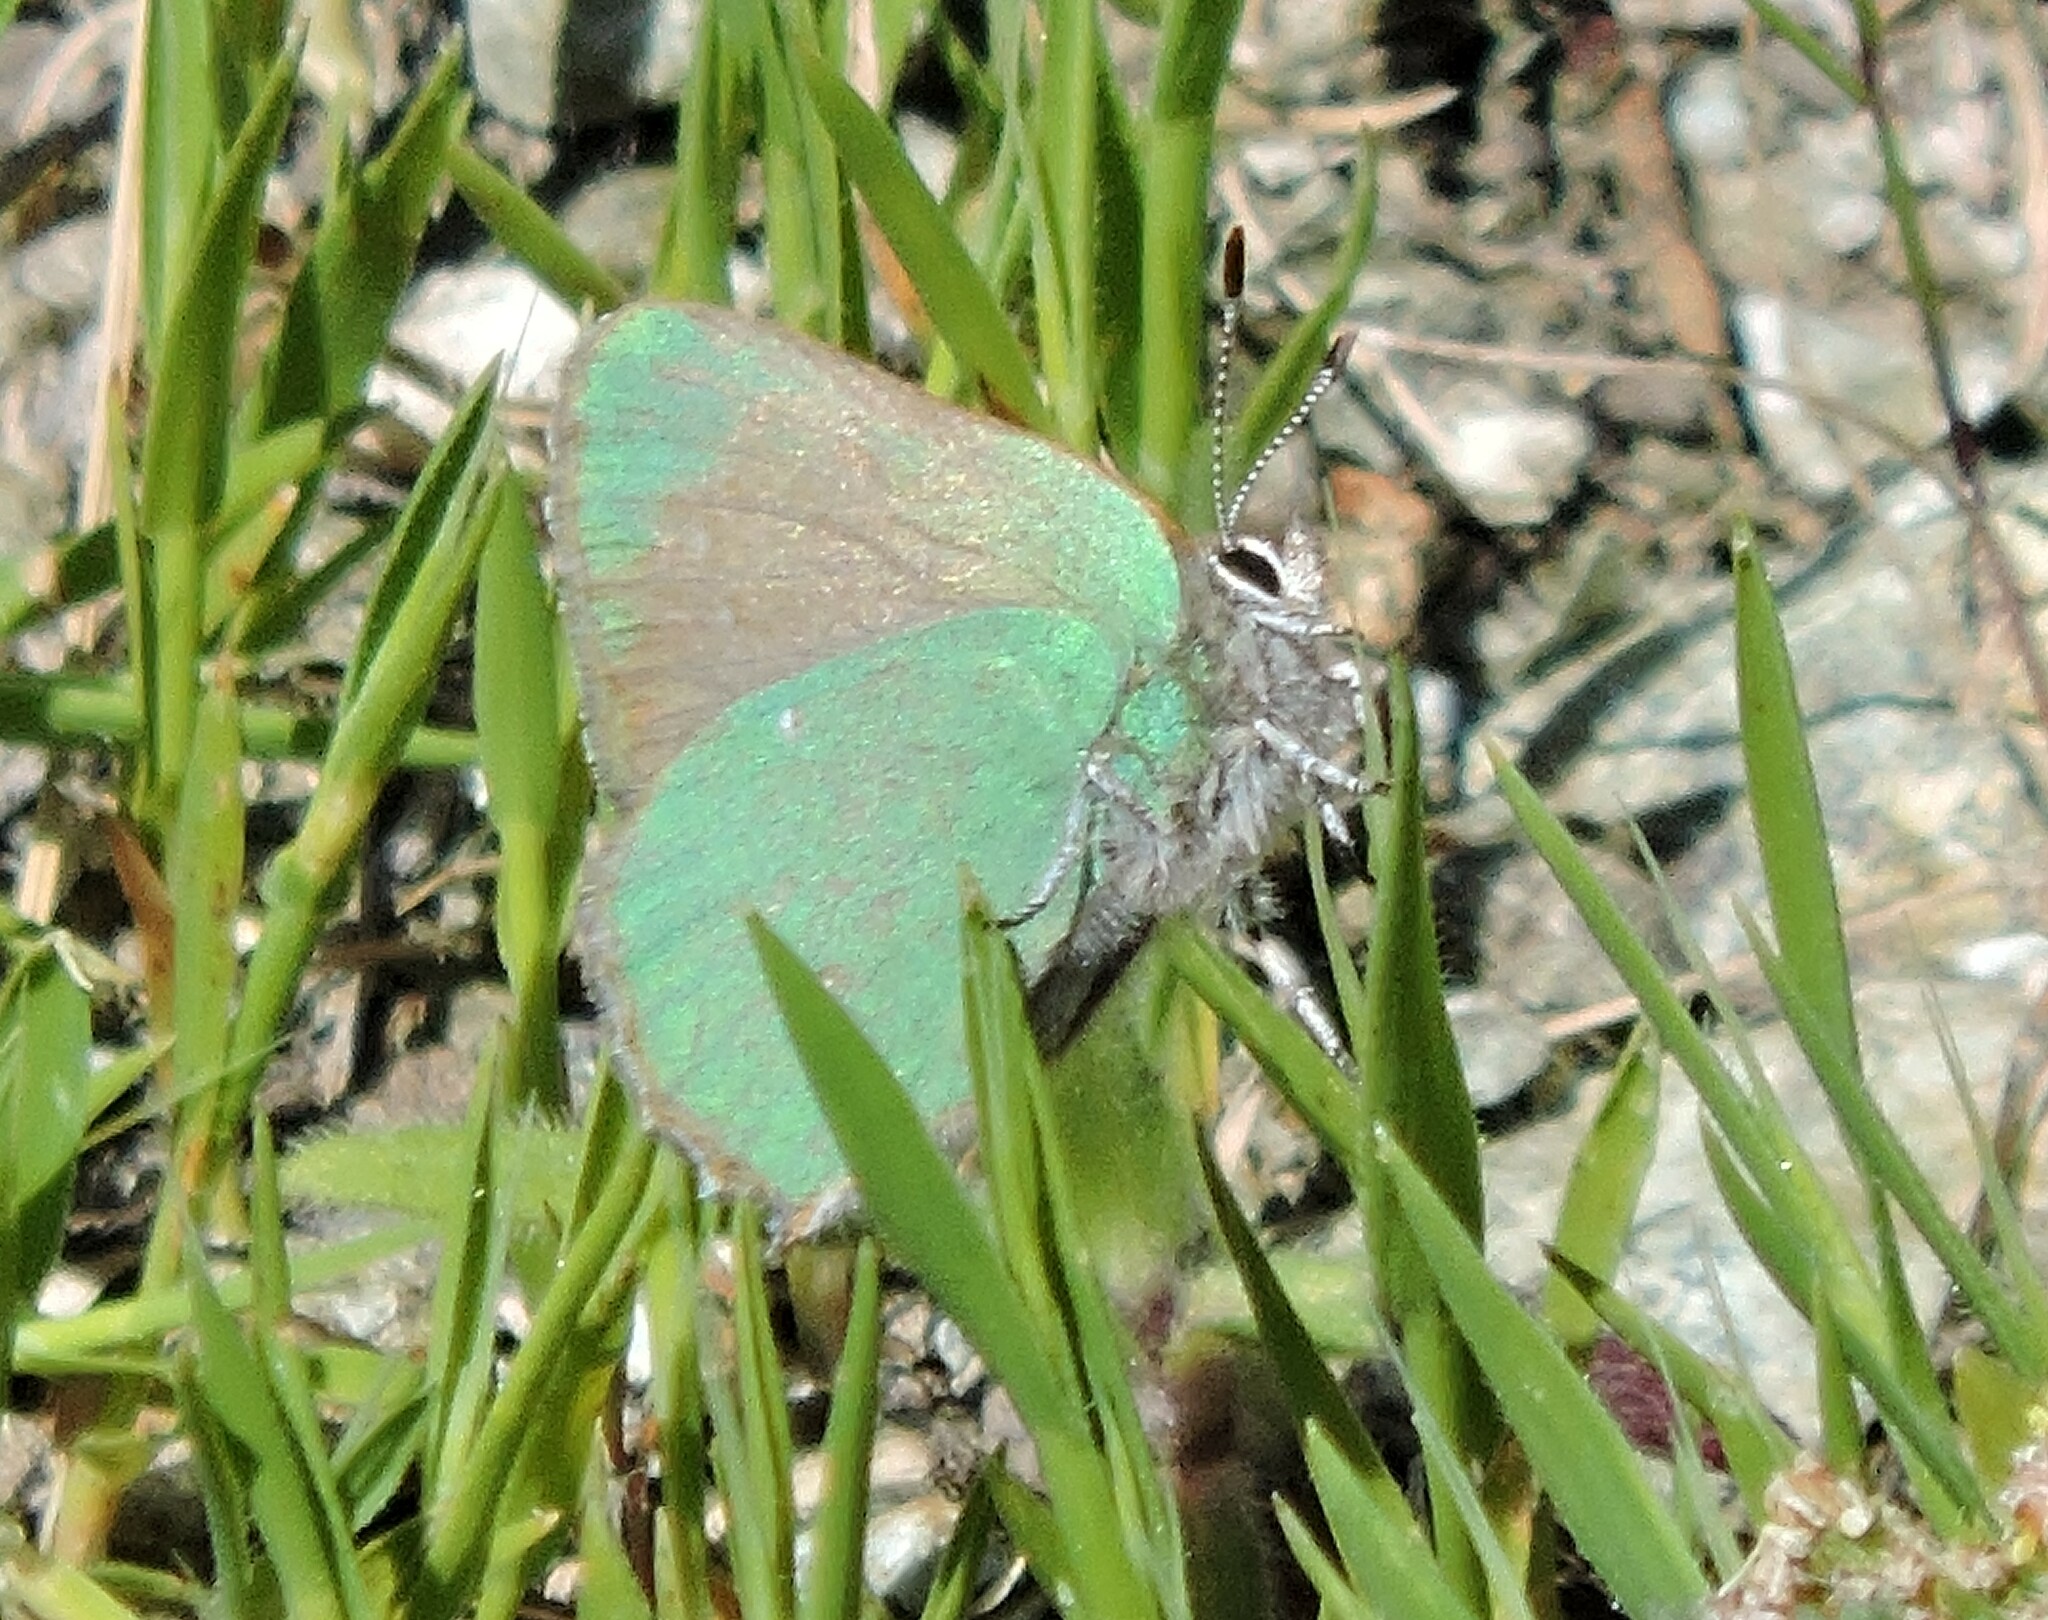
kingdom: Animalia
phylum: Arthropoda
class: Insecta
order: Lepidoptera
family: Lycaenidae
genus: Callophrys
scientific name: Callophrys dumetorum
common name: Bramble hairstreak
